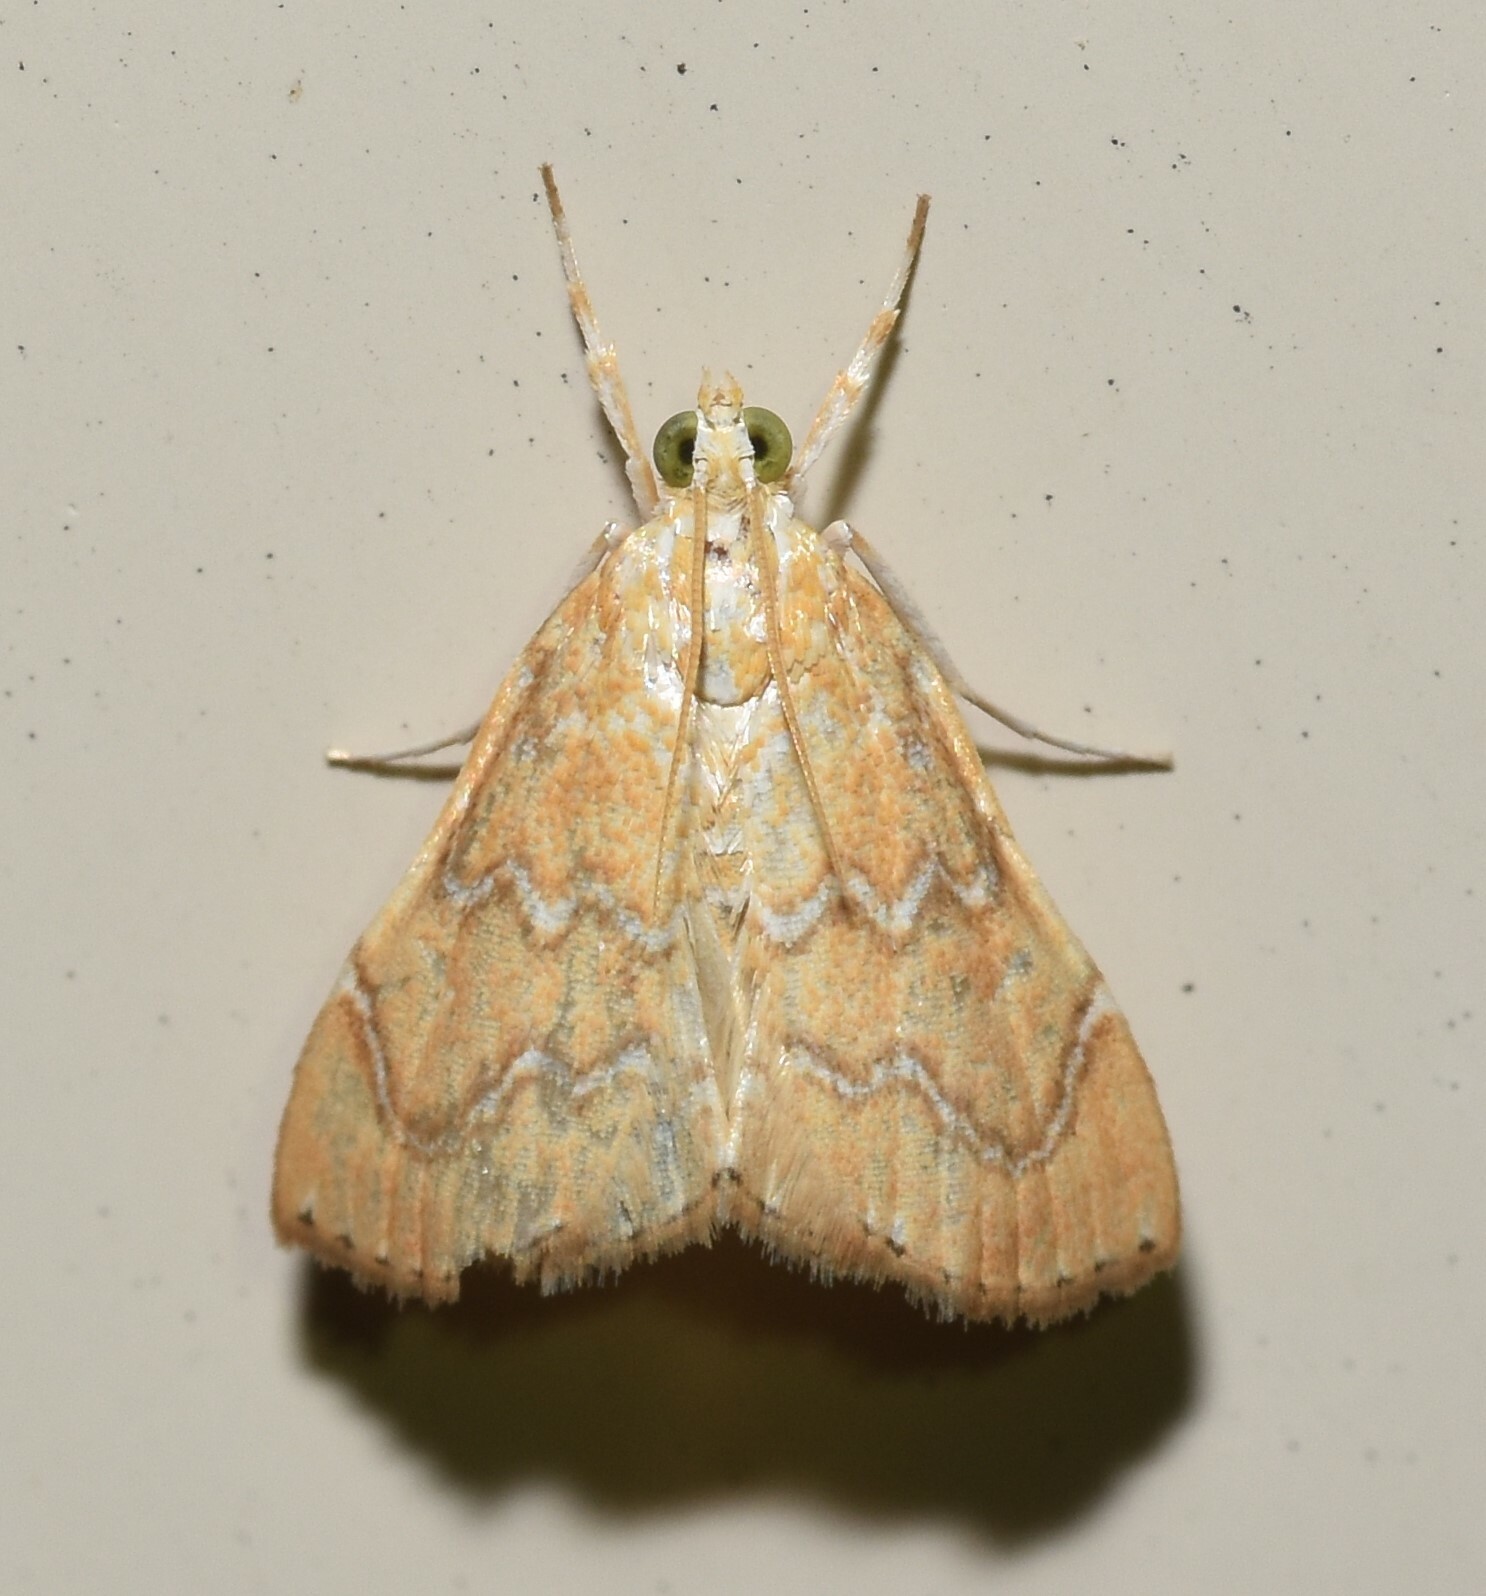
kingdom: Animalia
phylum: Arthropoda
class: Insecta
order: Lepidoptera
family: Crambidae
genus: Glaphyria
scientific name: Glaphyria sesquistrialis
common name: White-roped glaphyria
